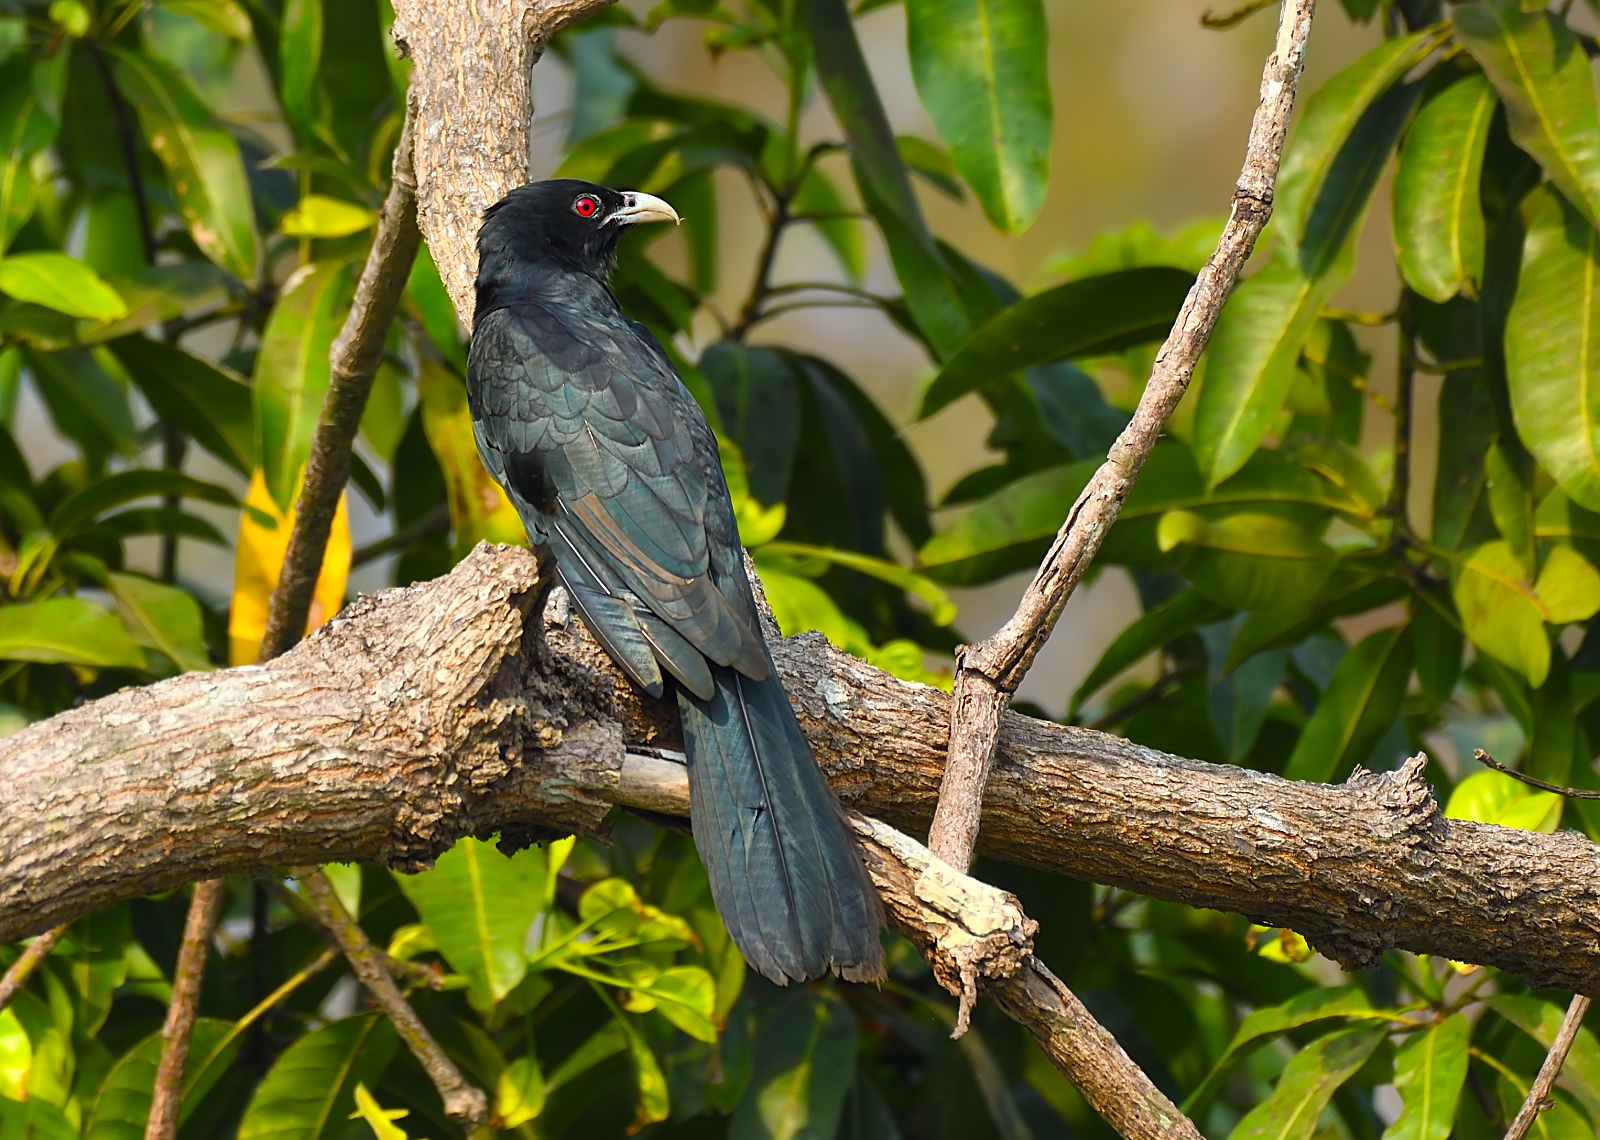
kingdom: Animalia
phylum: Chordata
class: Aves
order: Cuculiformes
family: Cuculidae
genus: Eudynamys
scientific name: Eudynamys scolopaceus
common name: Asian koel
